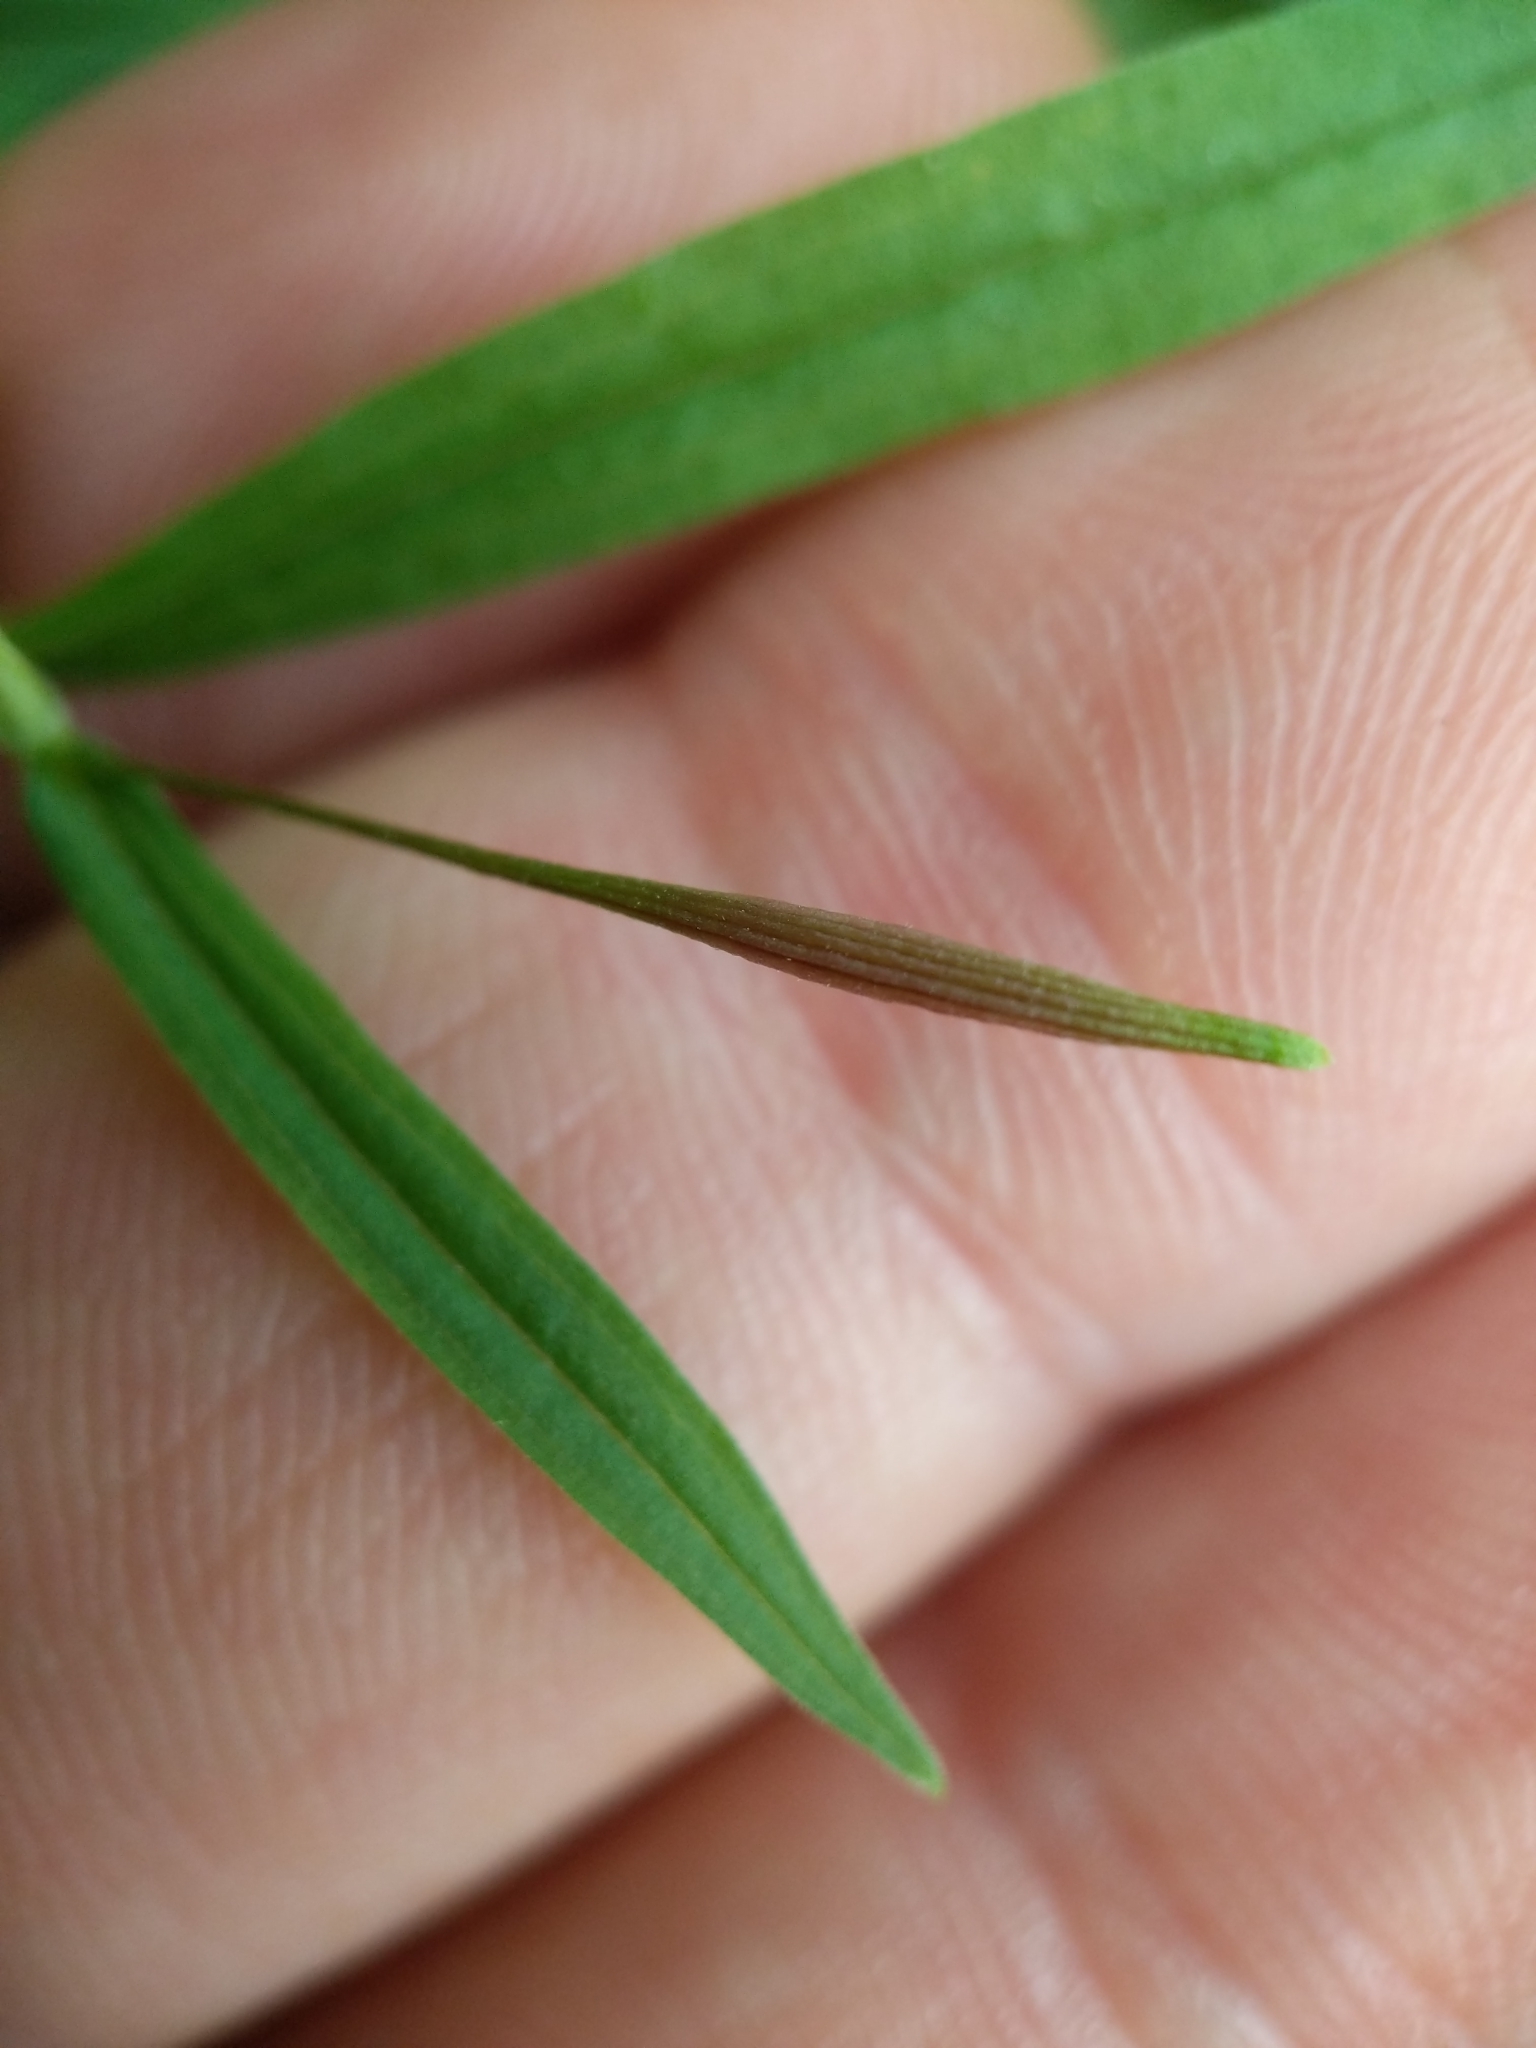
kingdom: Animalia
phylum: Arthropoda
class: Insecta
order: Diptera
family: Cecidomyiidae
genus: Rhopalomyia
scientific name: Rhopalomyia pedicellata
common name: Goldentop pedicellate gall midge
